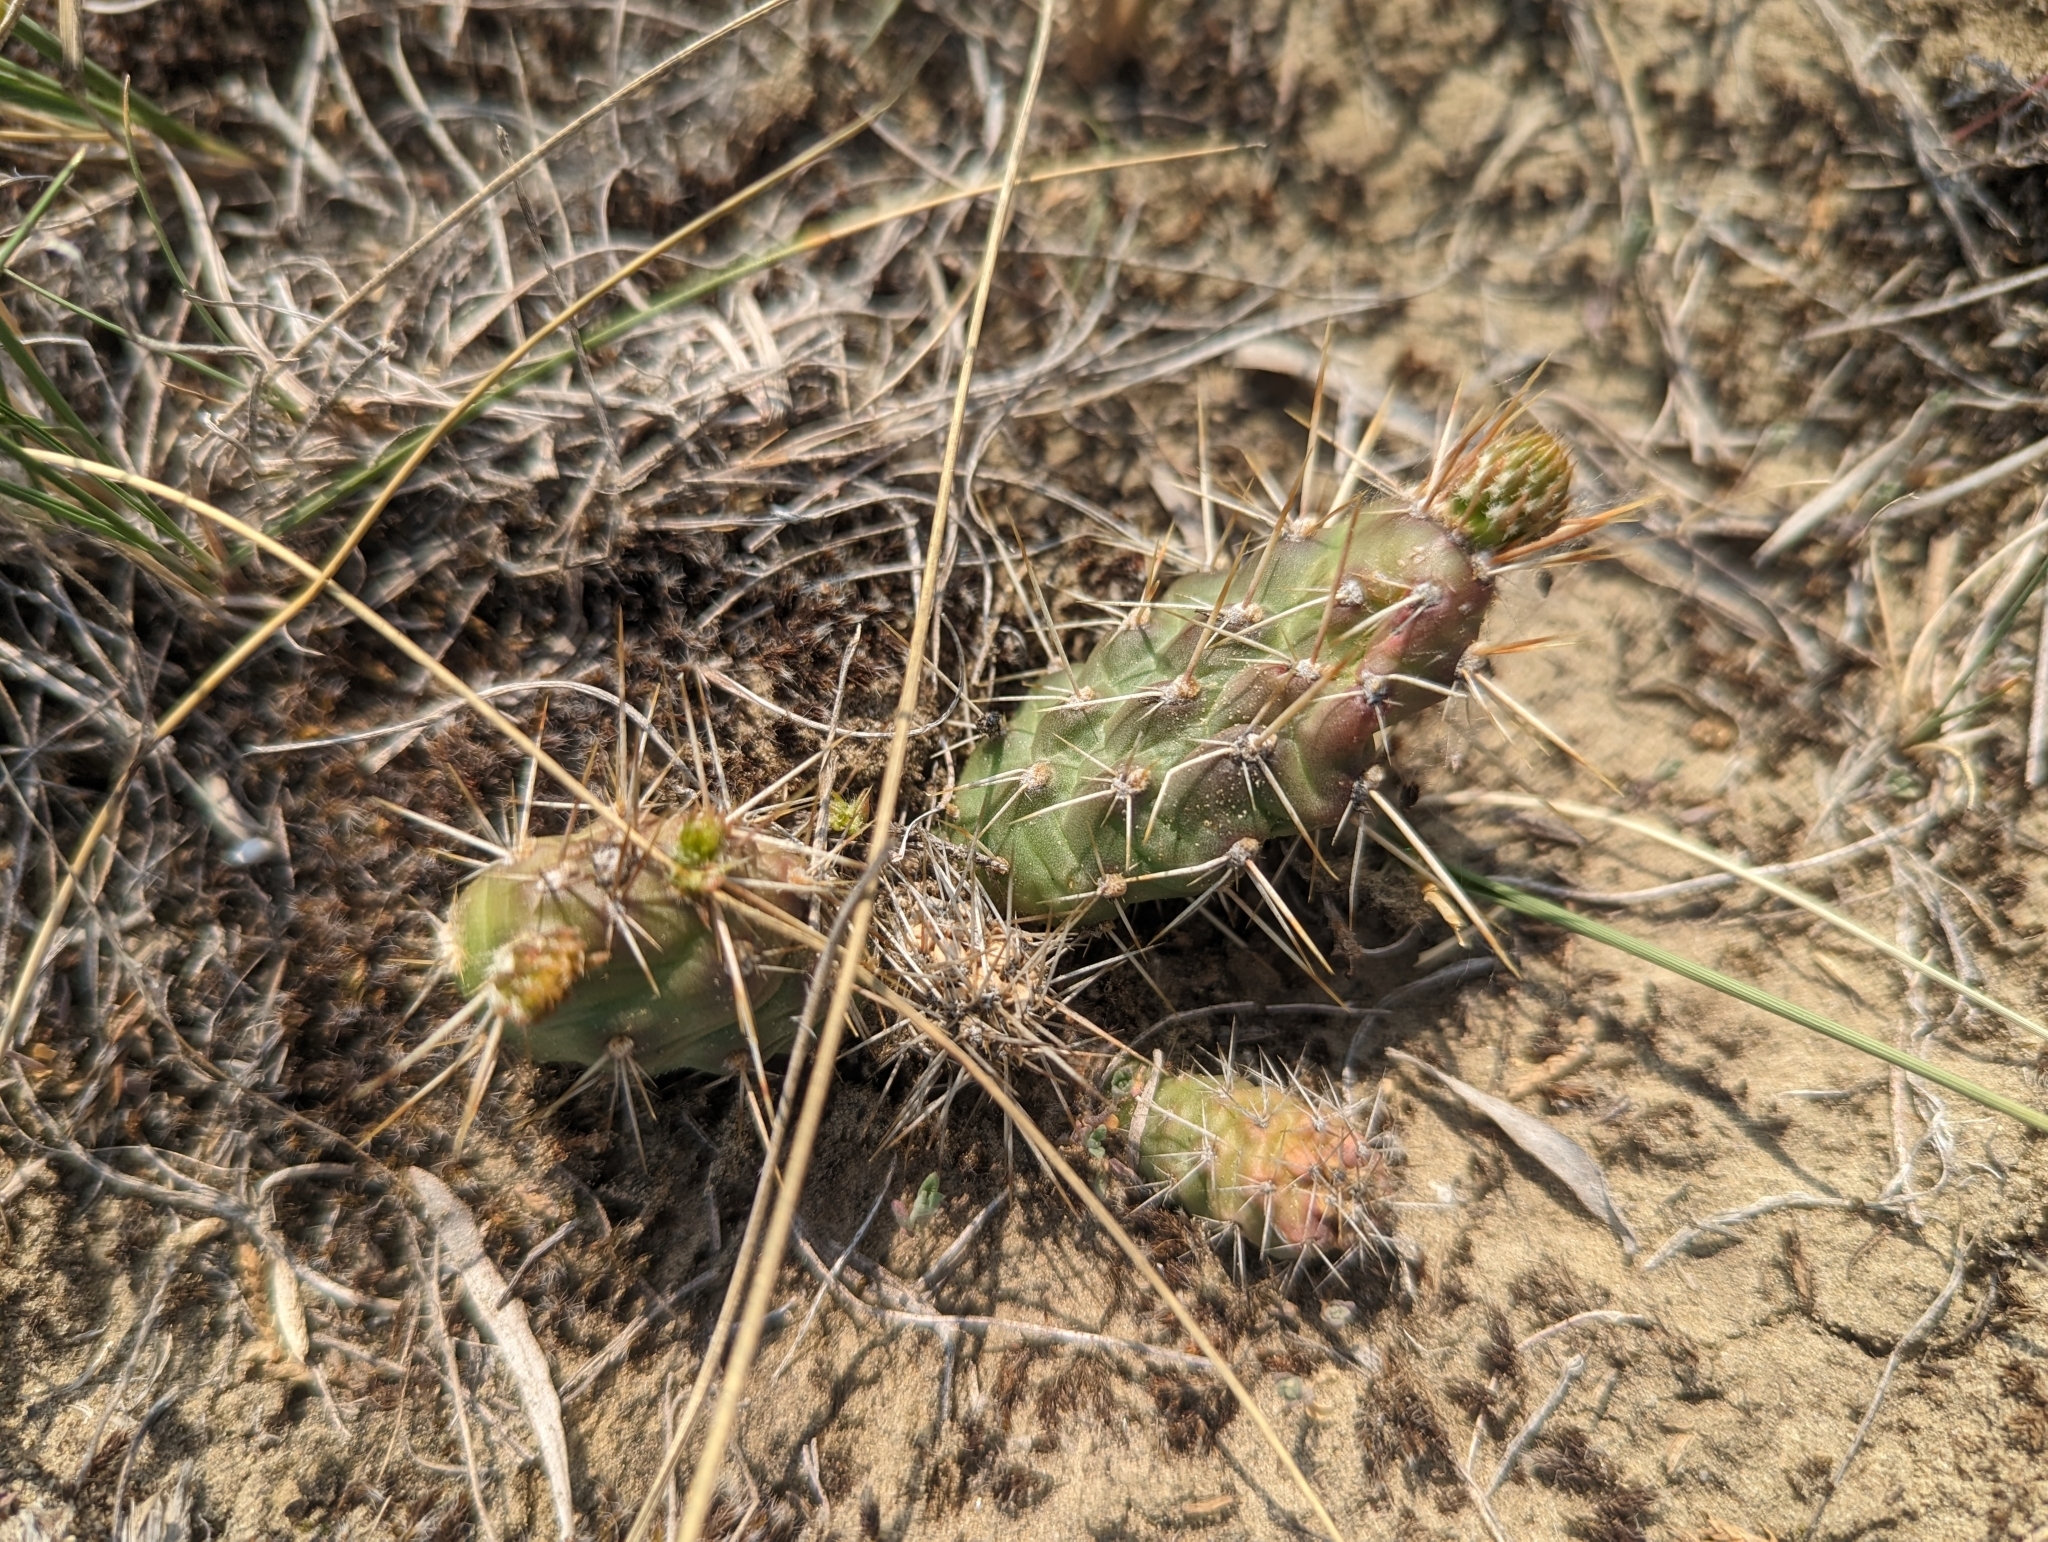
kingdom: Plantae
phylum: Tracheophyta
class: Magnoliopsida
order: Caryophyllales
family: Cactaceae
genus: Opuntia
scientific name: Opuntia fragilis
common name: Brittle cactus
